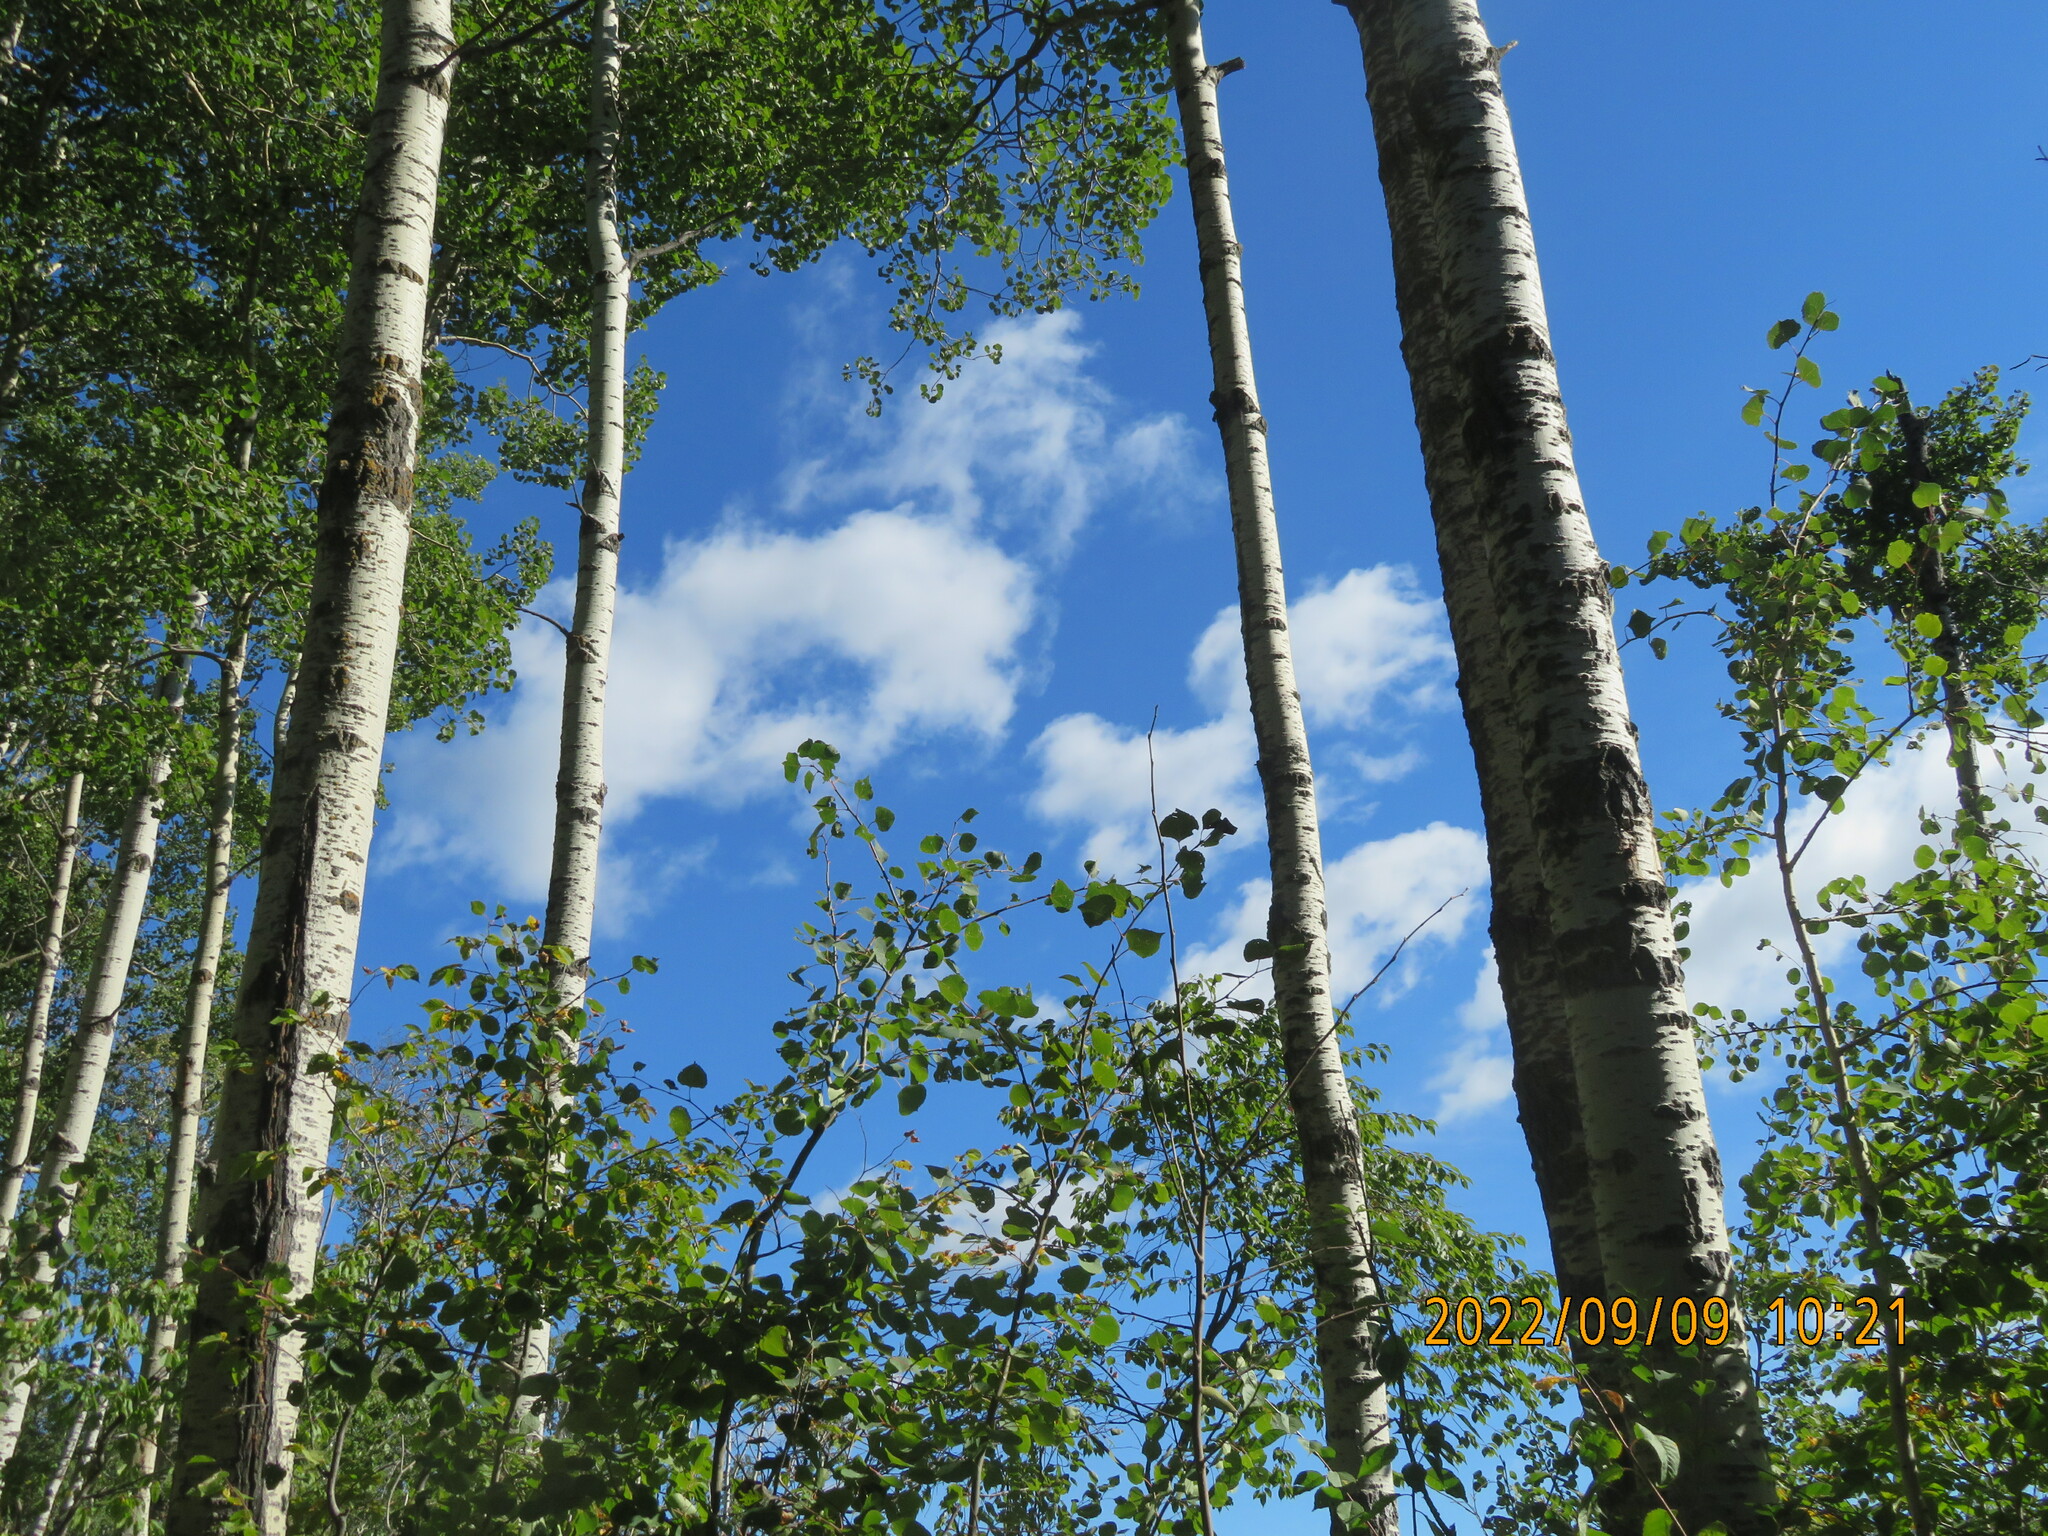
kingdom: Plantae
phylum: Tracheophyta
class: Magnoliopsida
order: Malpighiales
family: Salicaceae
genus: Populus
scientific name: Populus tremuloides
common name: Quaking aspen
